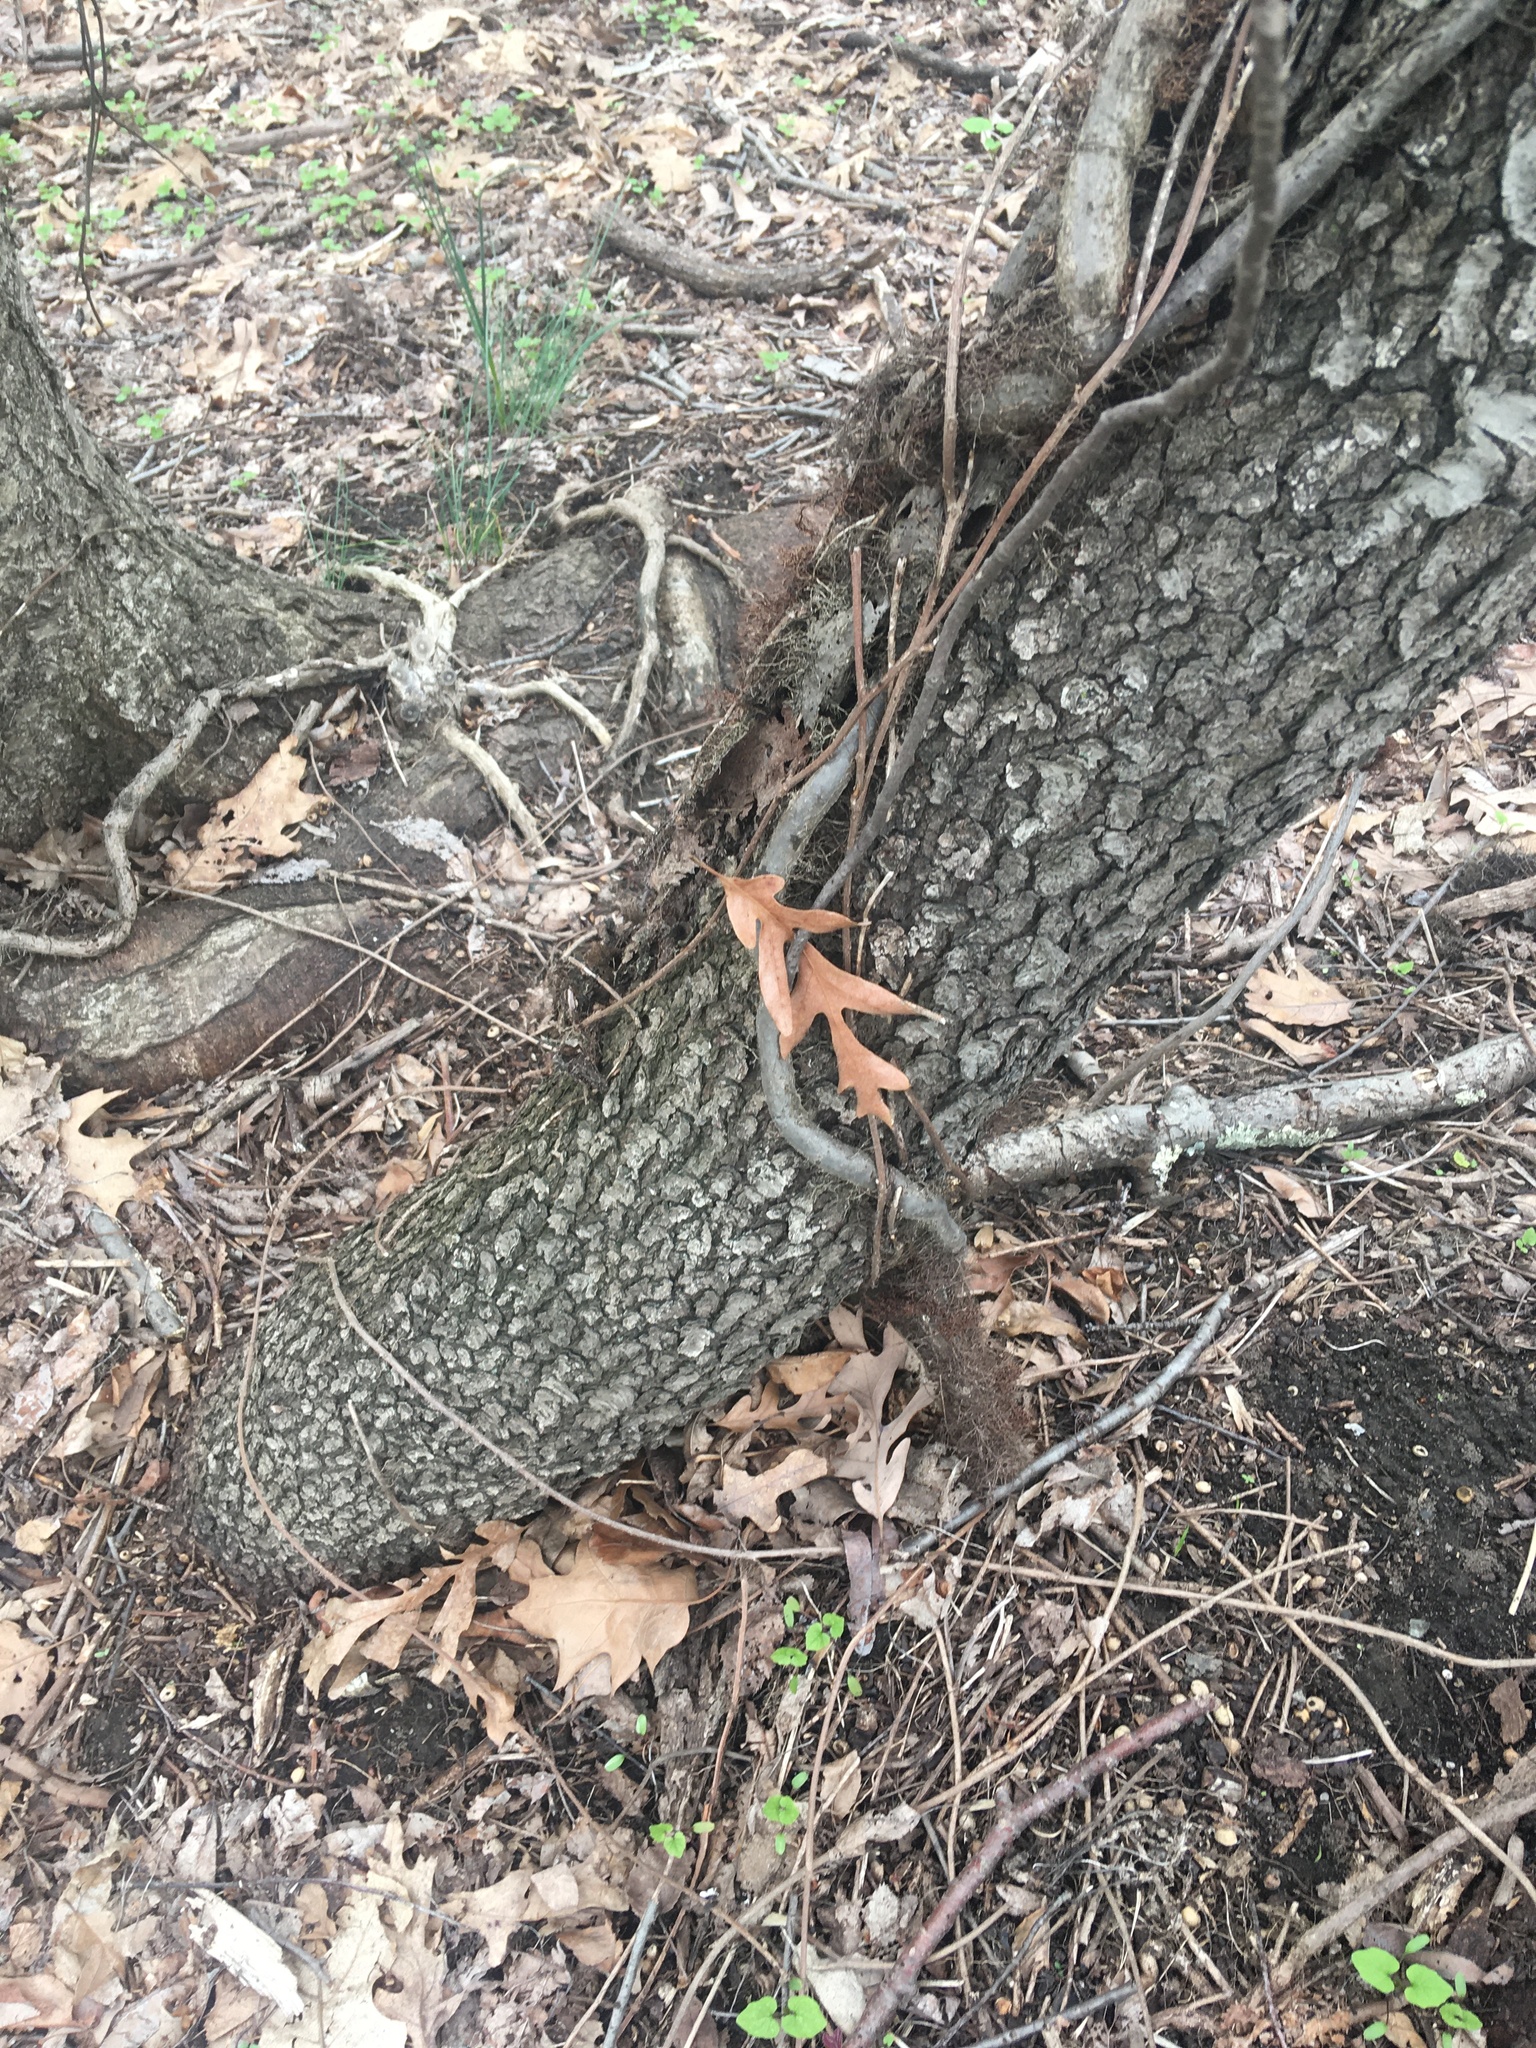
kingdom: Plantae
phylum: Tracheophyta
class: Magnoliopsida
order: Rosales
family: Rosaceae
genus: Prunus
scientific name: Prunus serotina
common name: Black cherry
